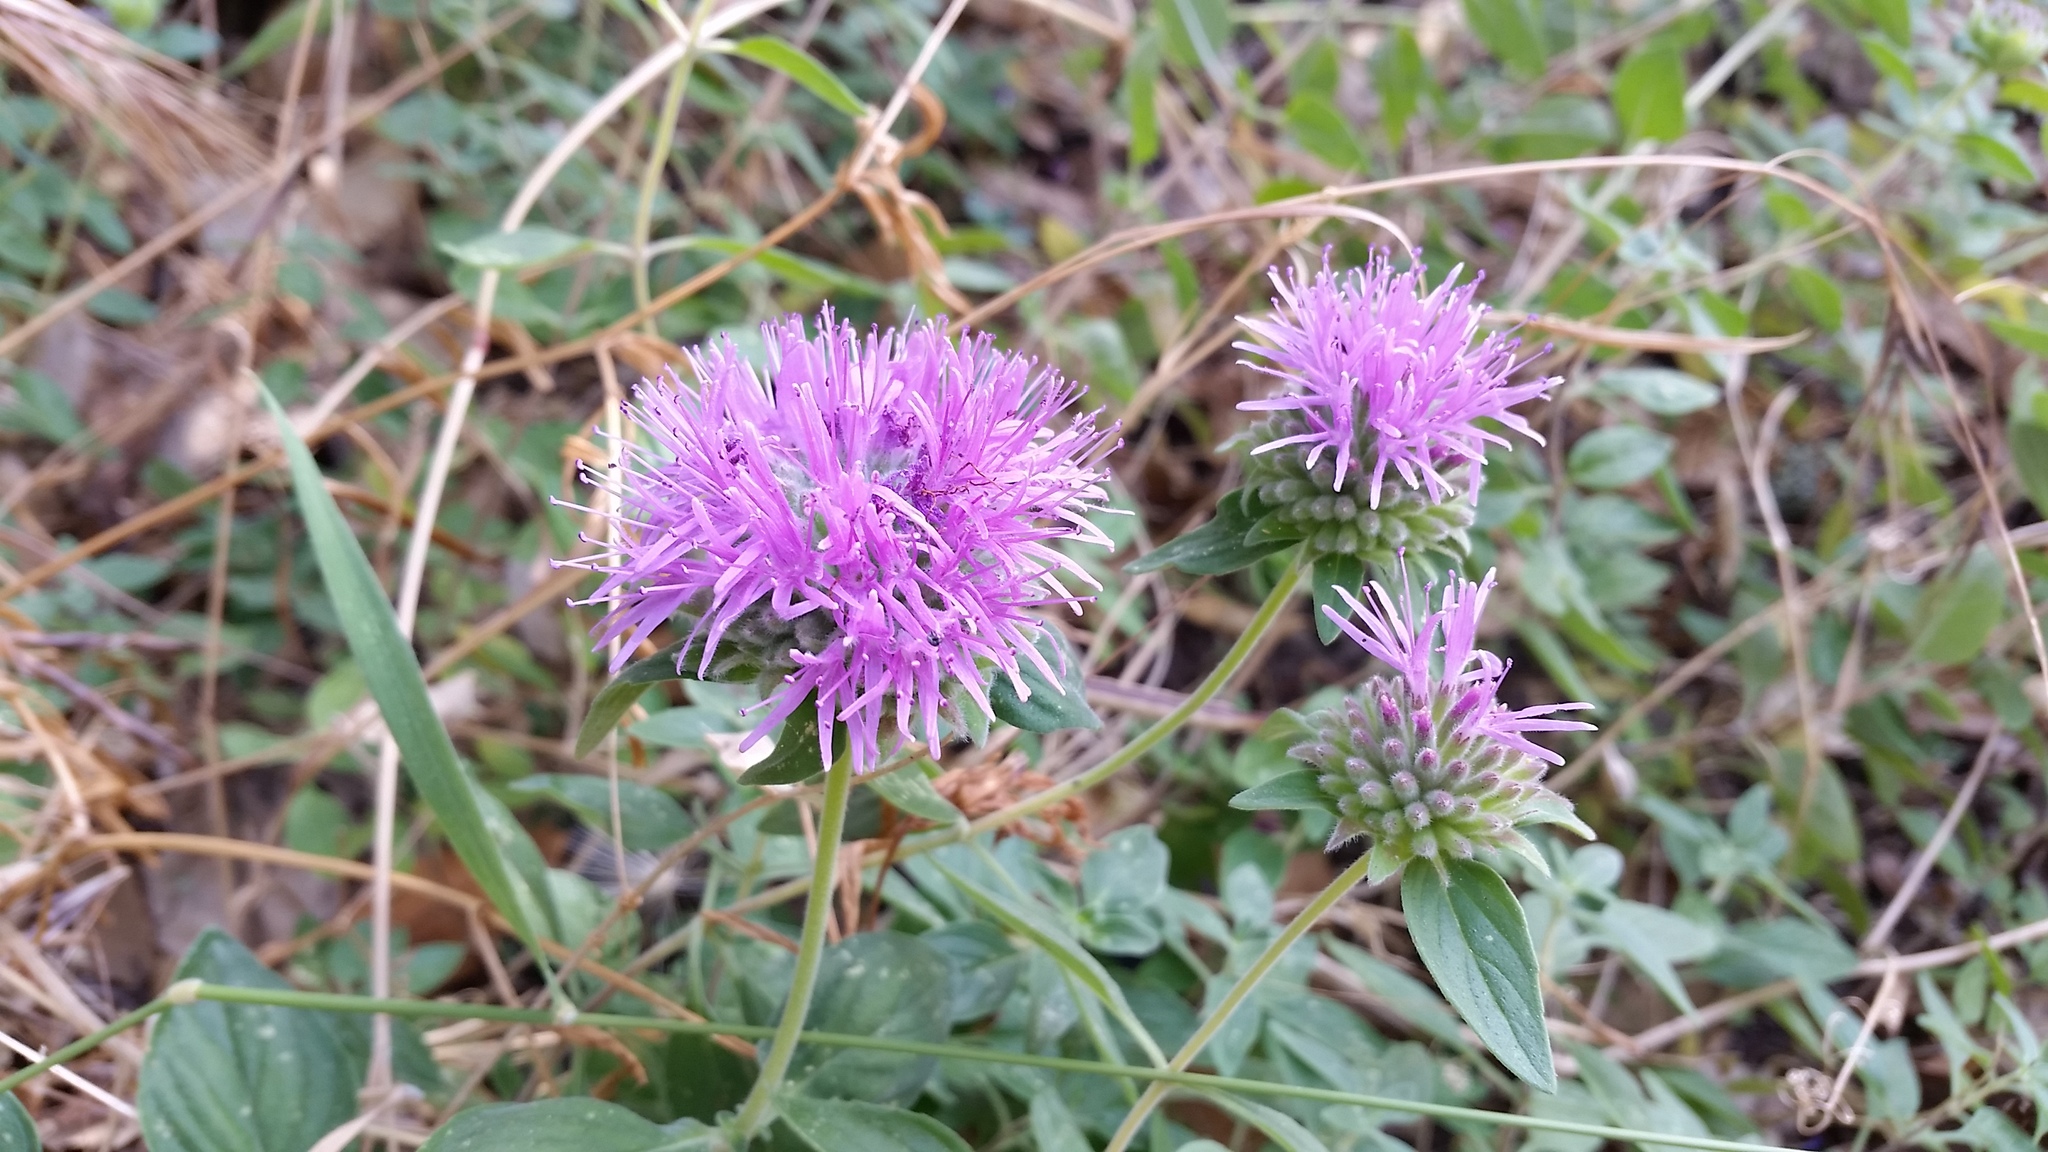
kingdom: Plantae
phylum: Tracheophyta
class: Magnoliopsida
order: Lamiales
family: Lamiaceae
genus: Monardella
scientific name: Monardella odoratissima
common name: Pacific monardella
